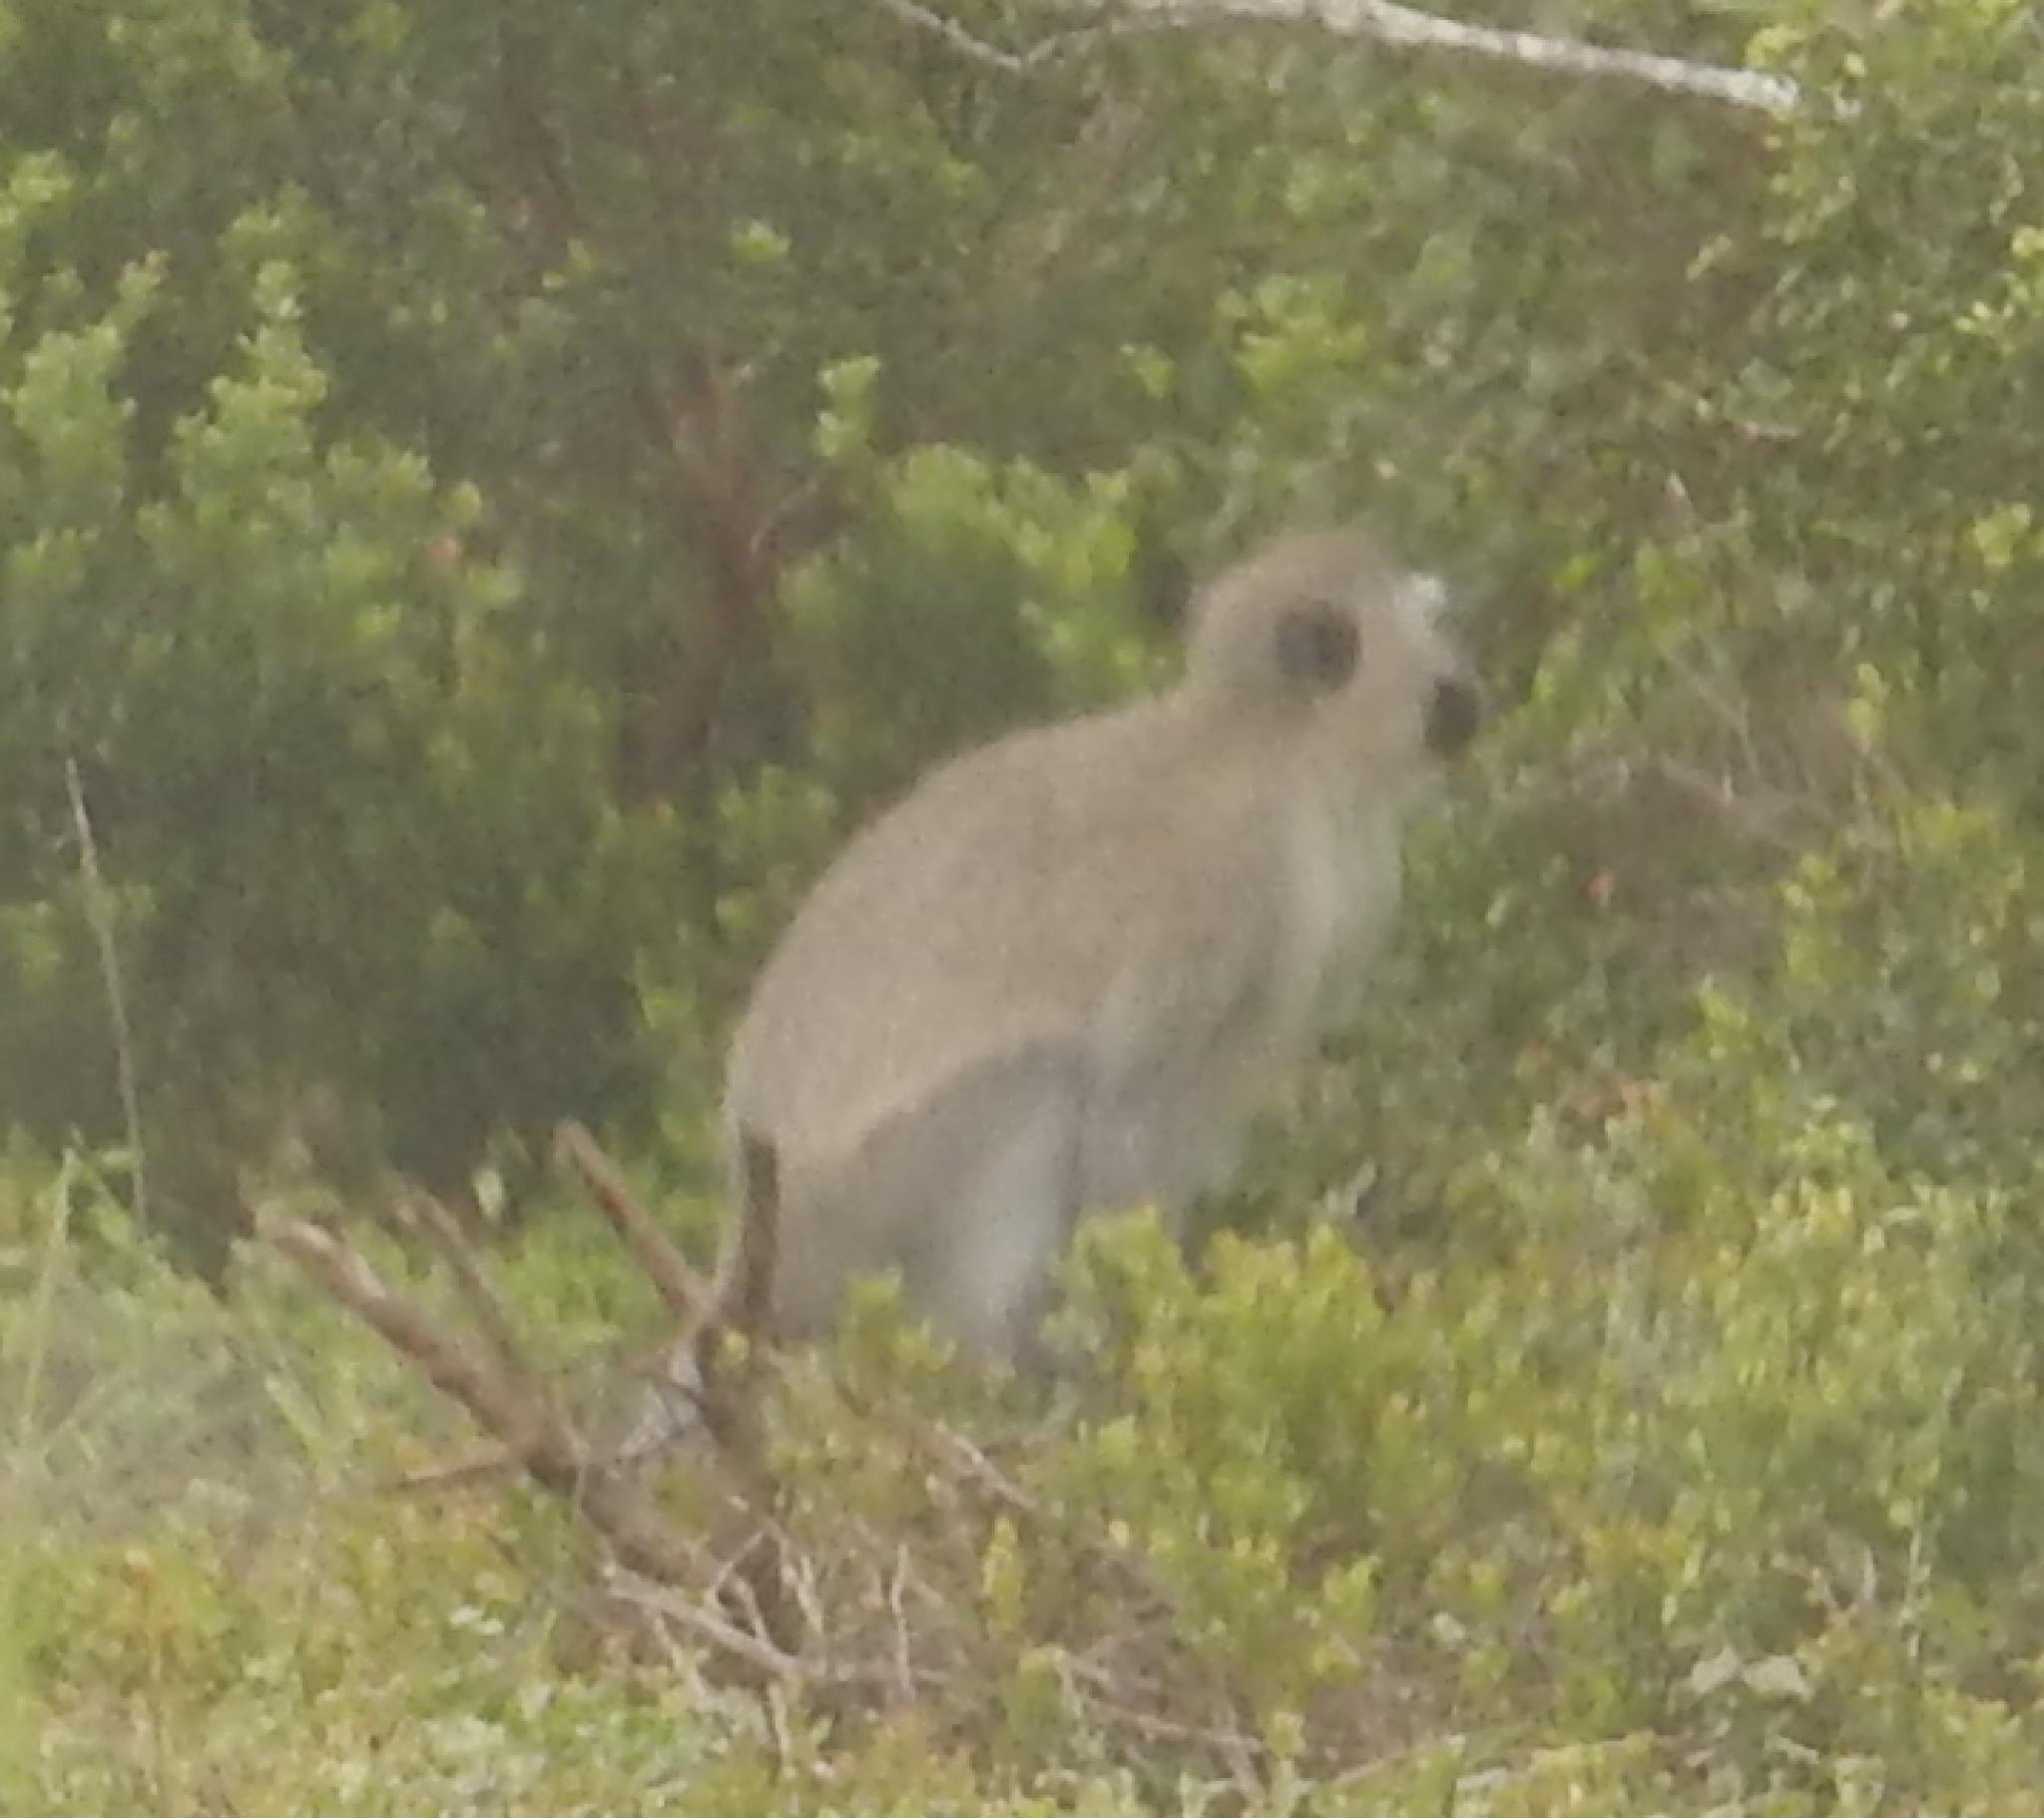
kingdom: Animalia
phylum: Chordata
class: Mammalia
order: Primates
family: Cercopithecidae
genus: Chlorocebus
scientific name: Chlorocebus pygerythrus
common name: Vervet monkey
